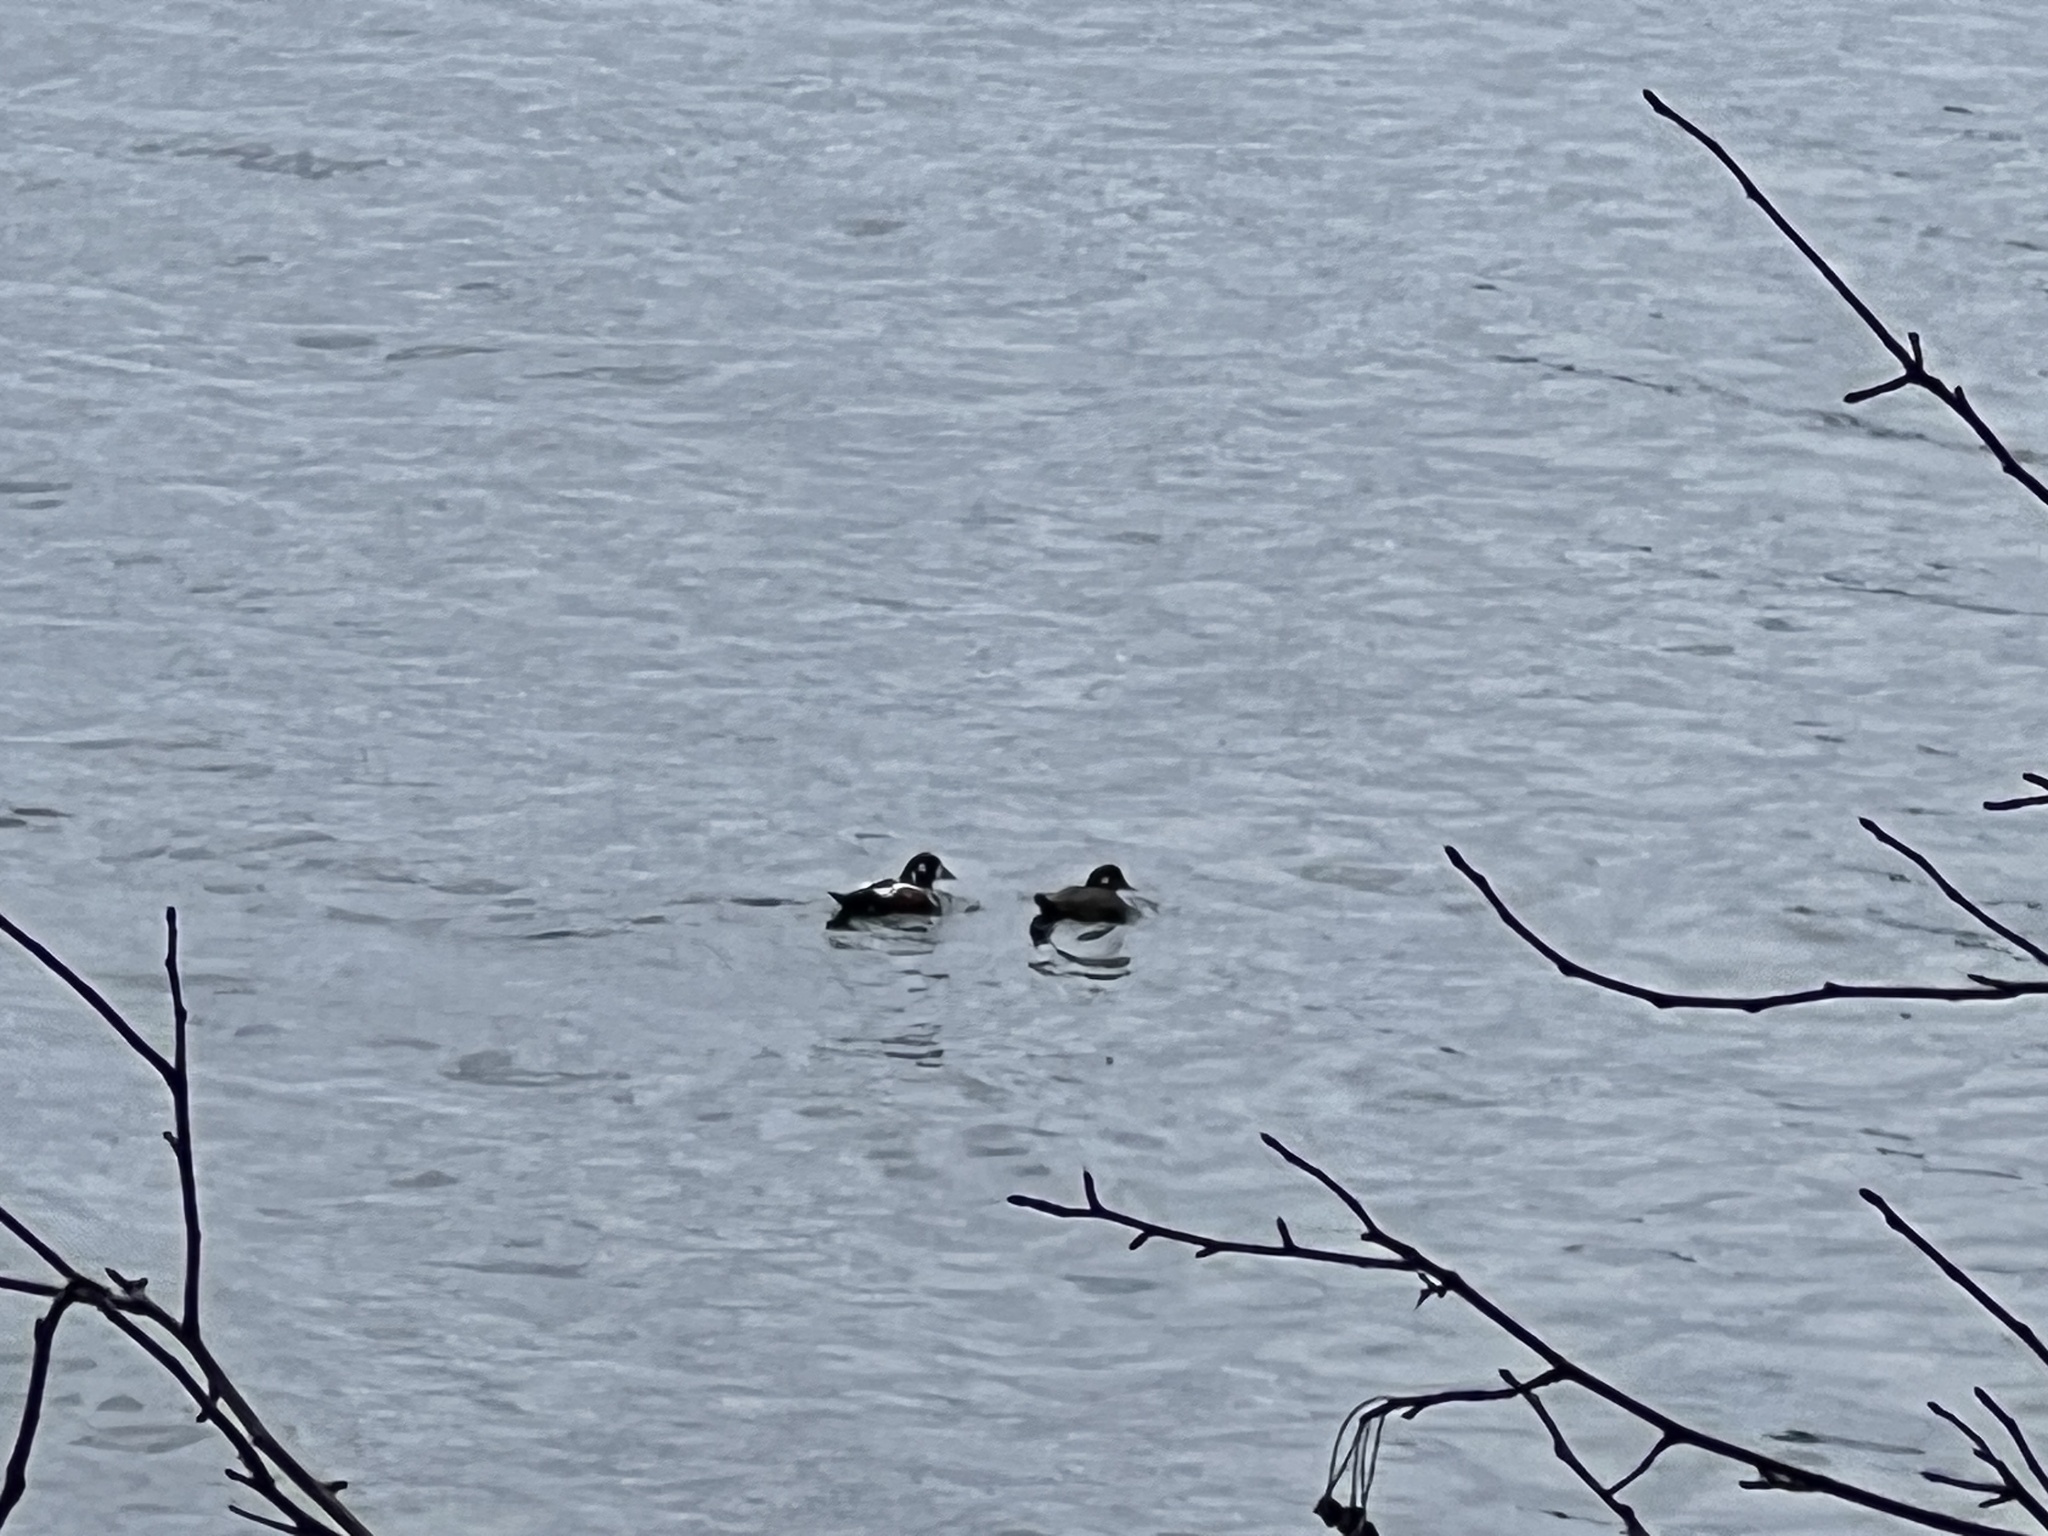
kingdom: Animalia
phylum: Chordata
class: Aves
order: Anseriformes
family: Anatidae
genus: Histrionicus
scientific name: Histrionicus histrionicus
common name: Harlequin duck
